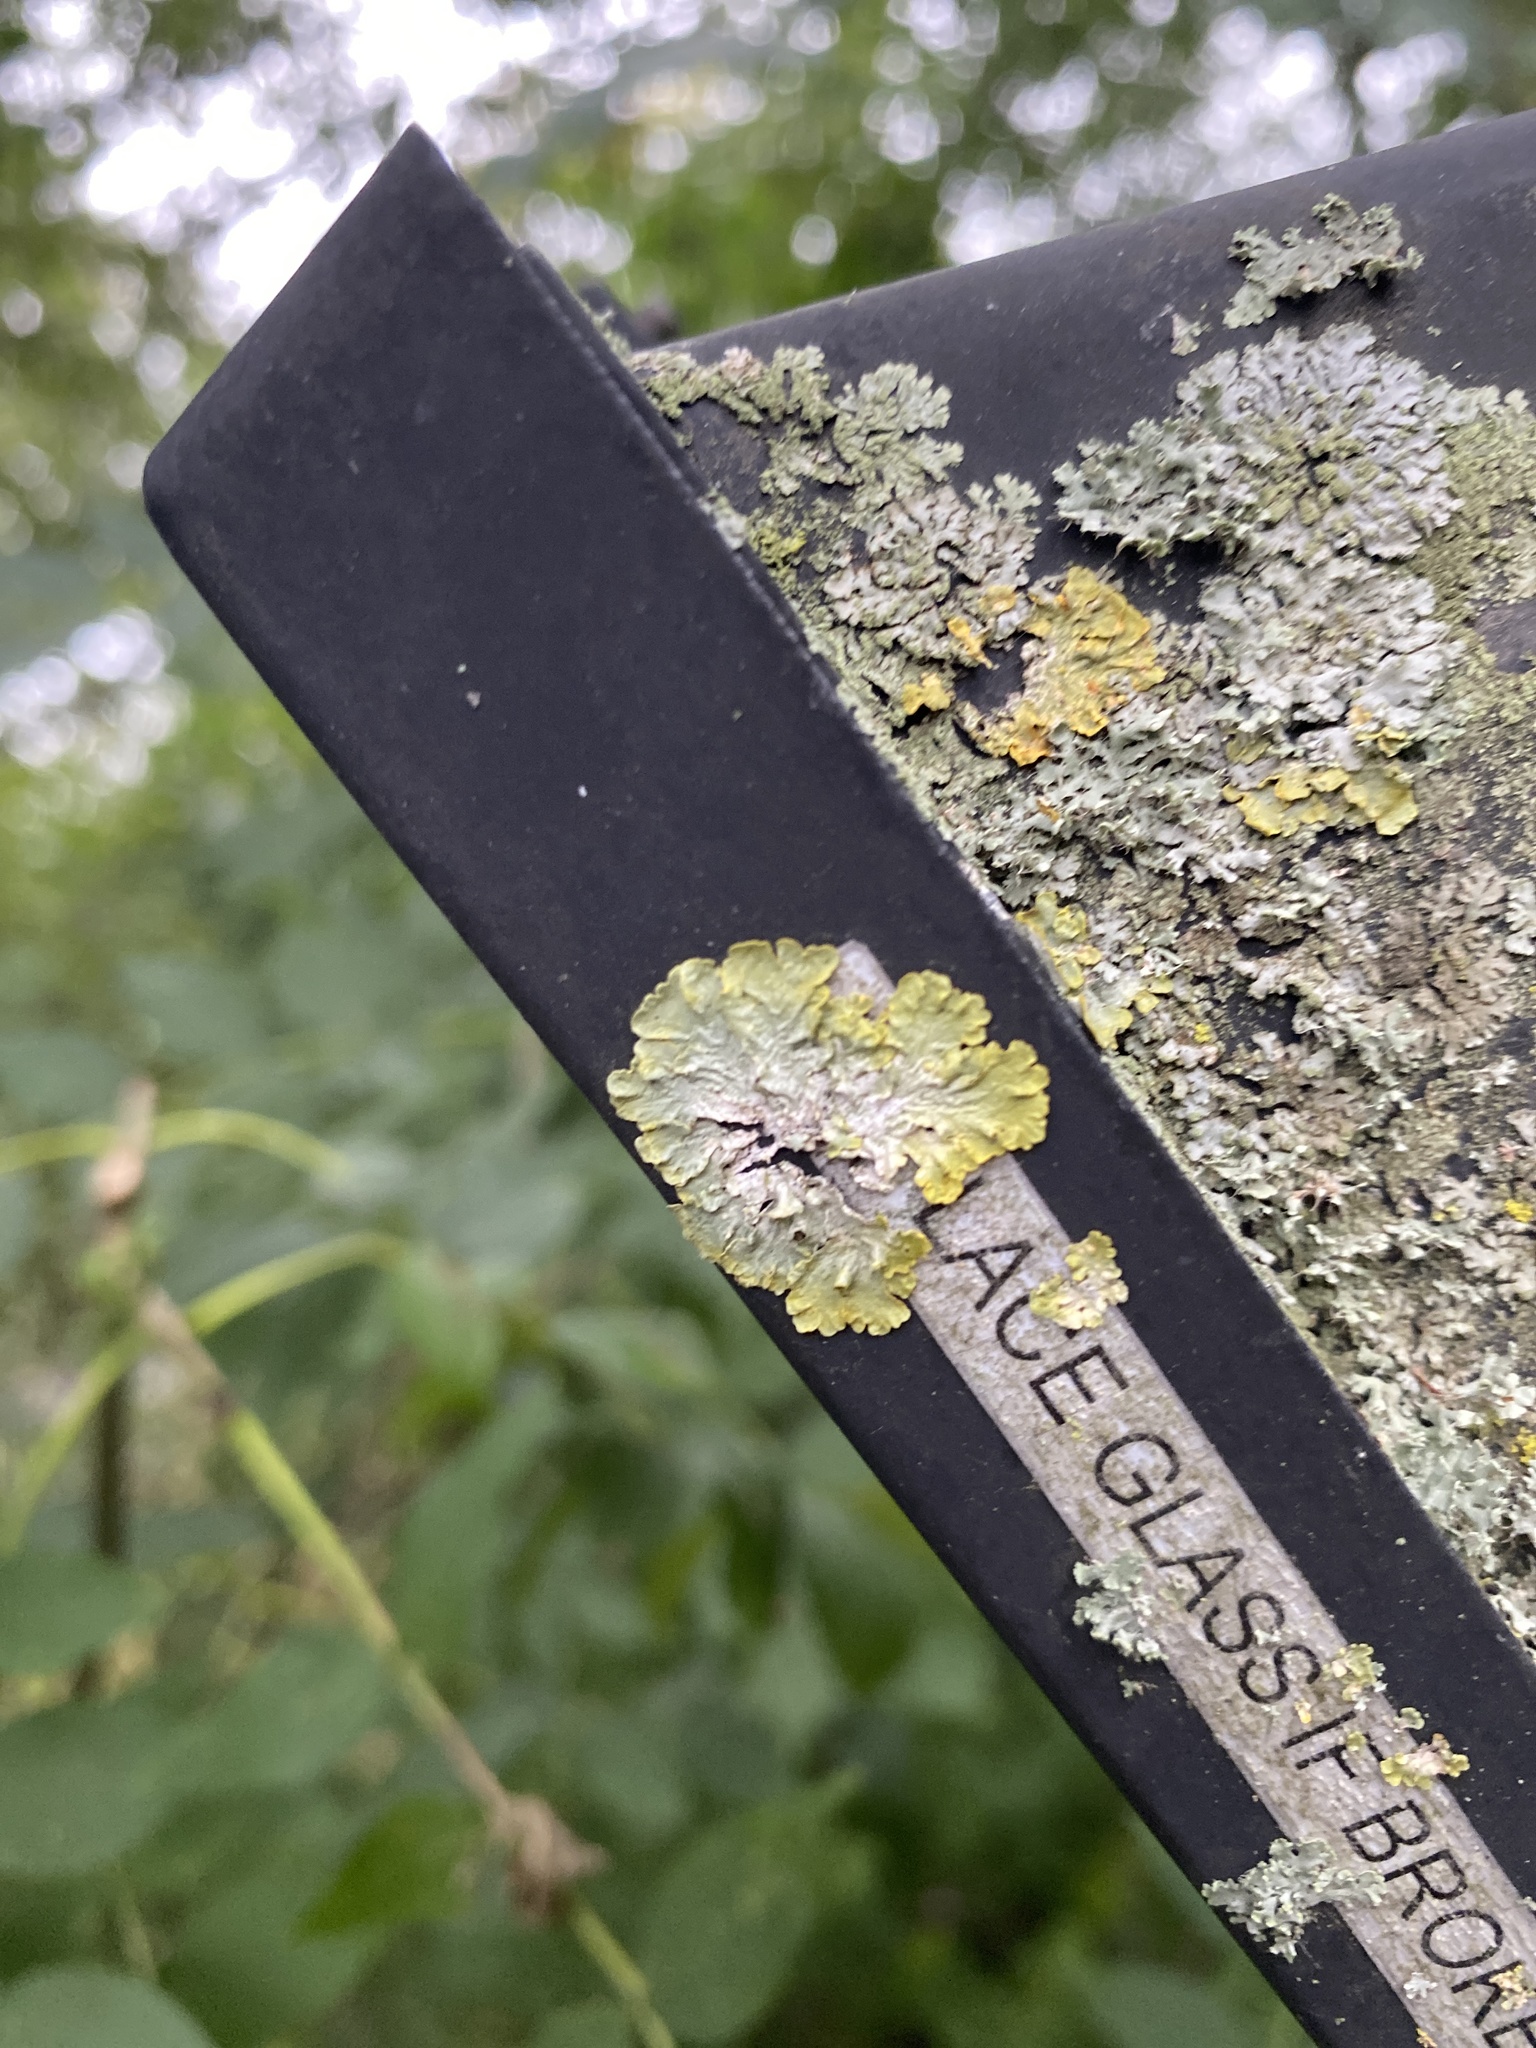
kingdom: Fungi
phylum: Ascomycota
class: Lecanoromycetes
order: Lecanorales
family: Parmeliaceae
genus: Flavoparmelia
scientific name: Flavoparmelia caperata
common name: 40-mile per hour lichen
